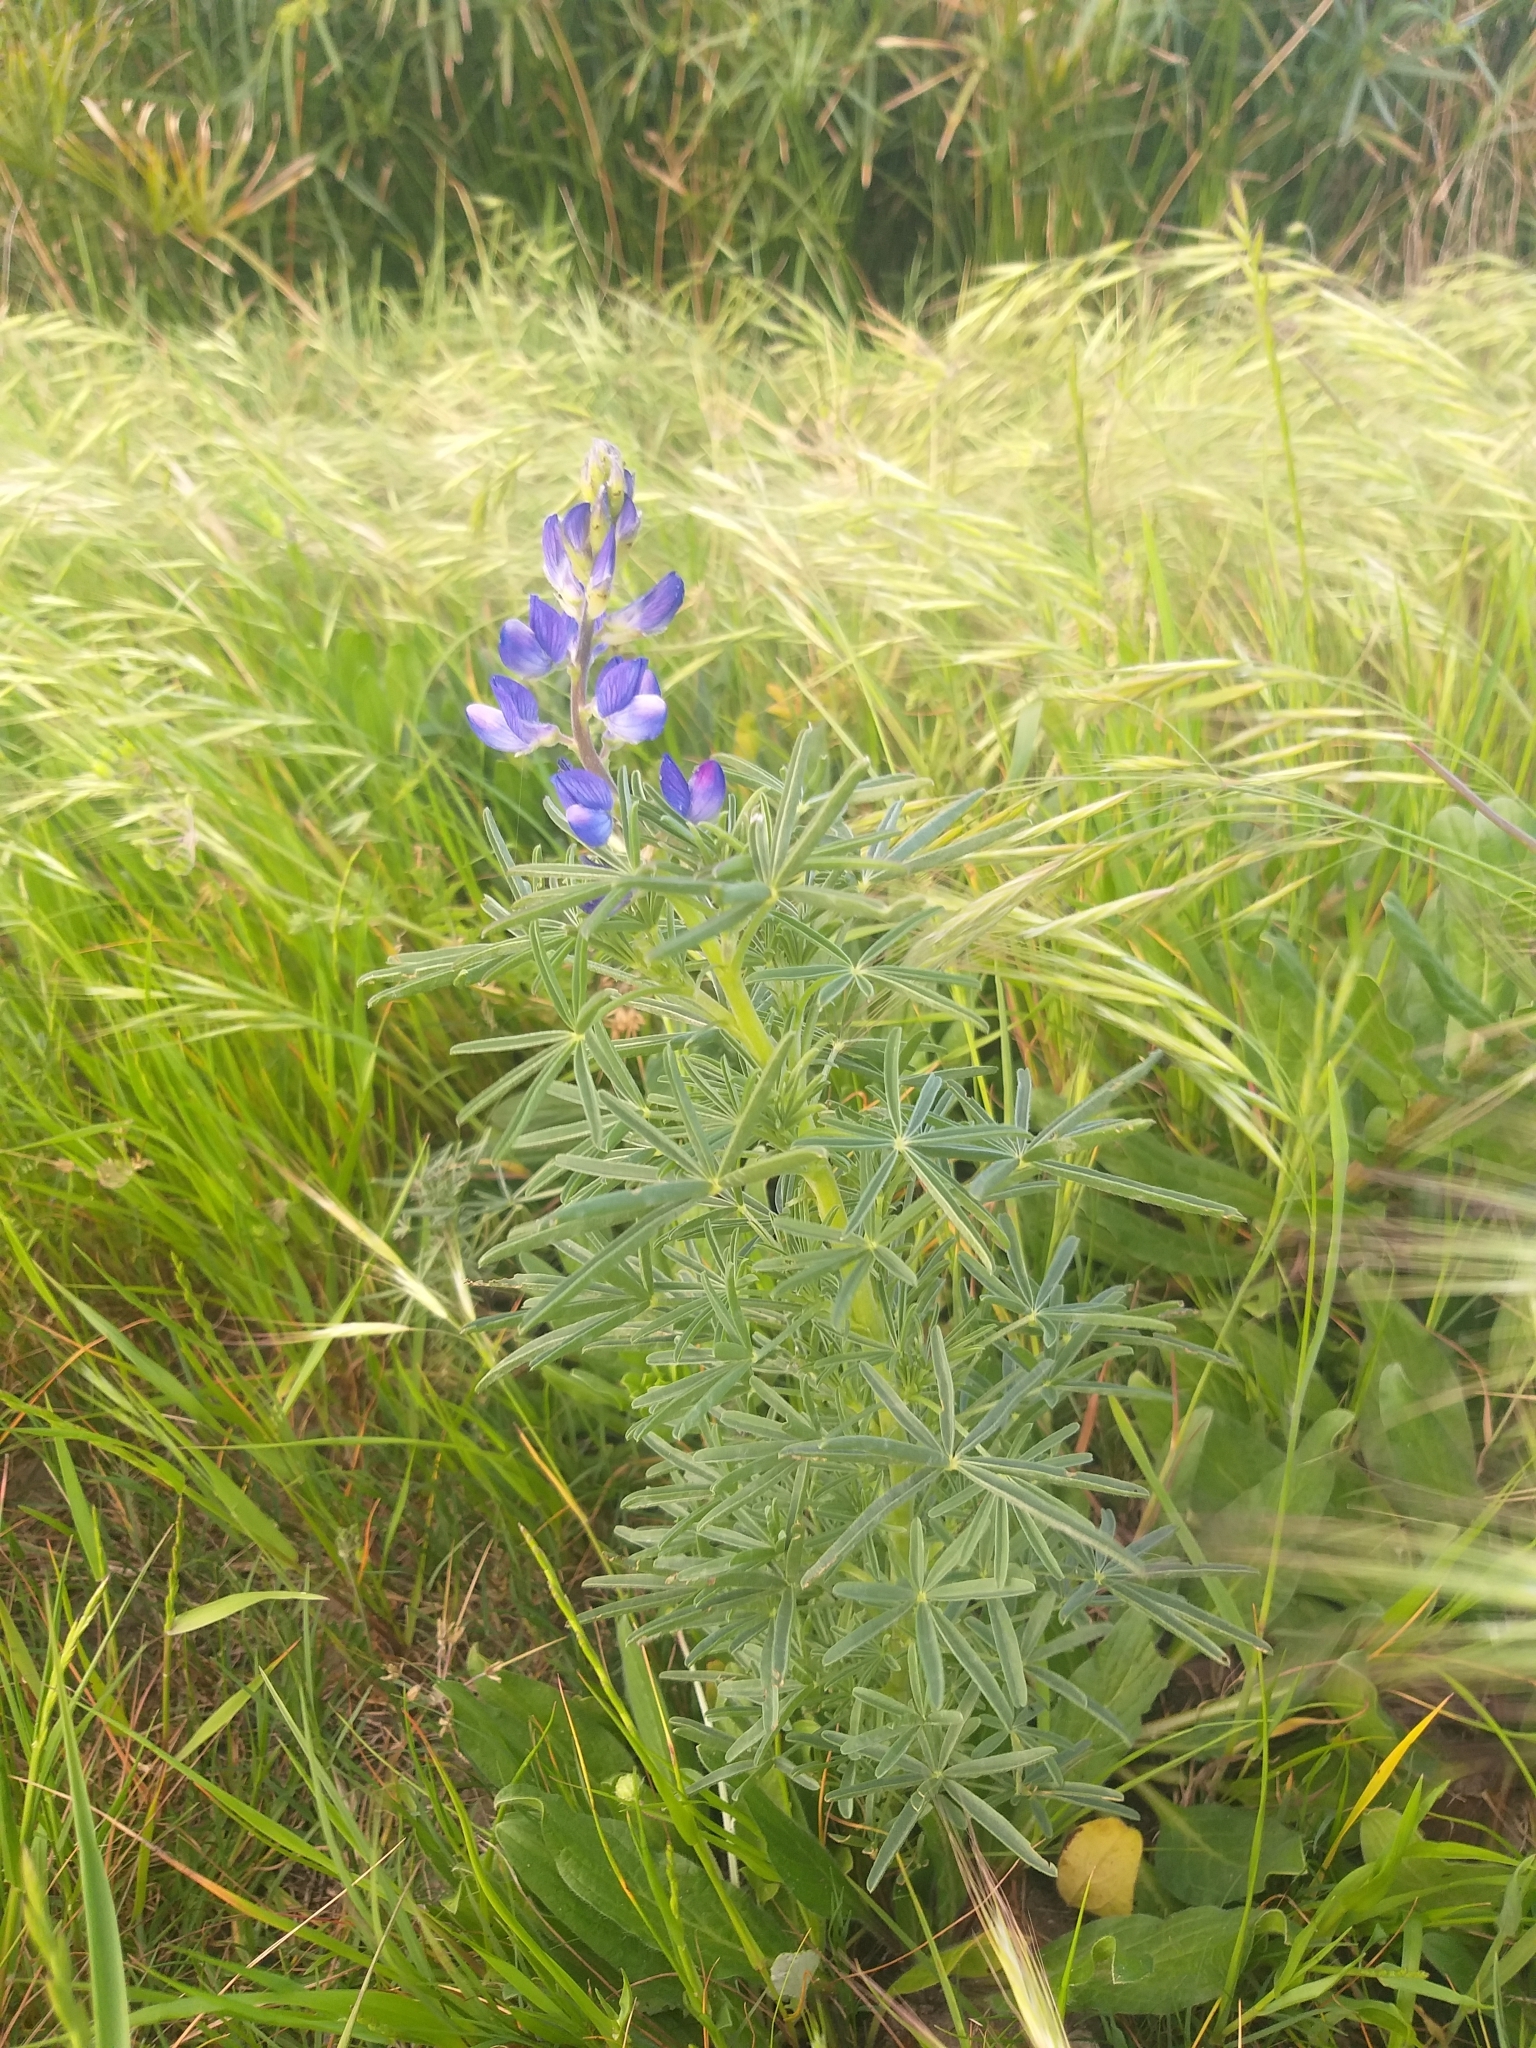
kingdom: Plantae
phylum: Tracheophyta
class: Magnoliopsida
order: Fabales
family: Fabaceae
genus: Lupinus
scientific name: Lupinus angustifolius
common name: Narrow-leaved lupin
